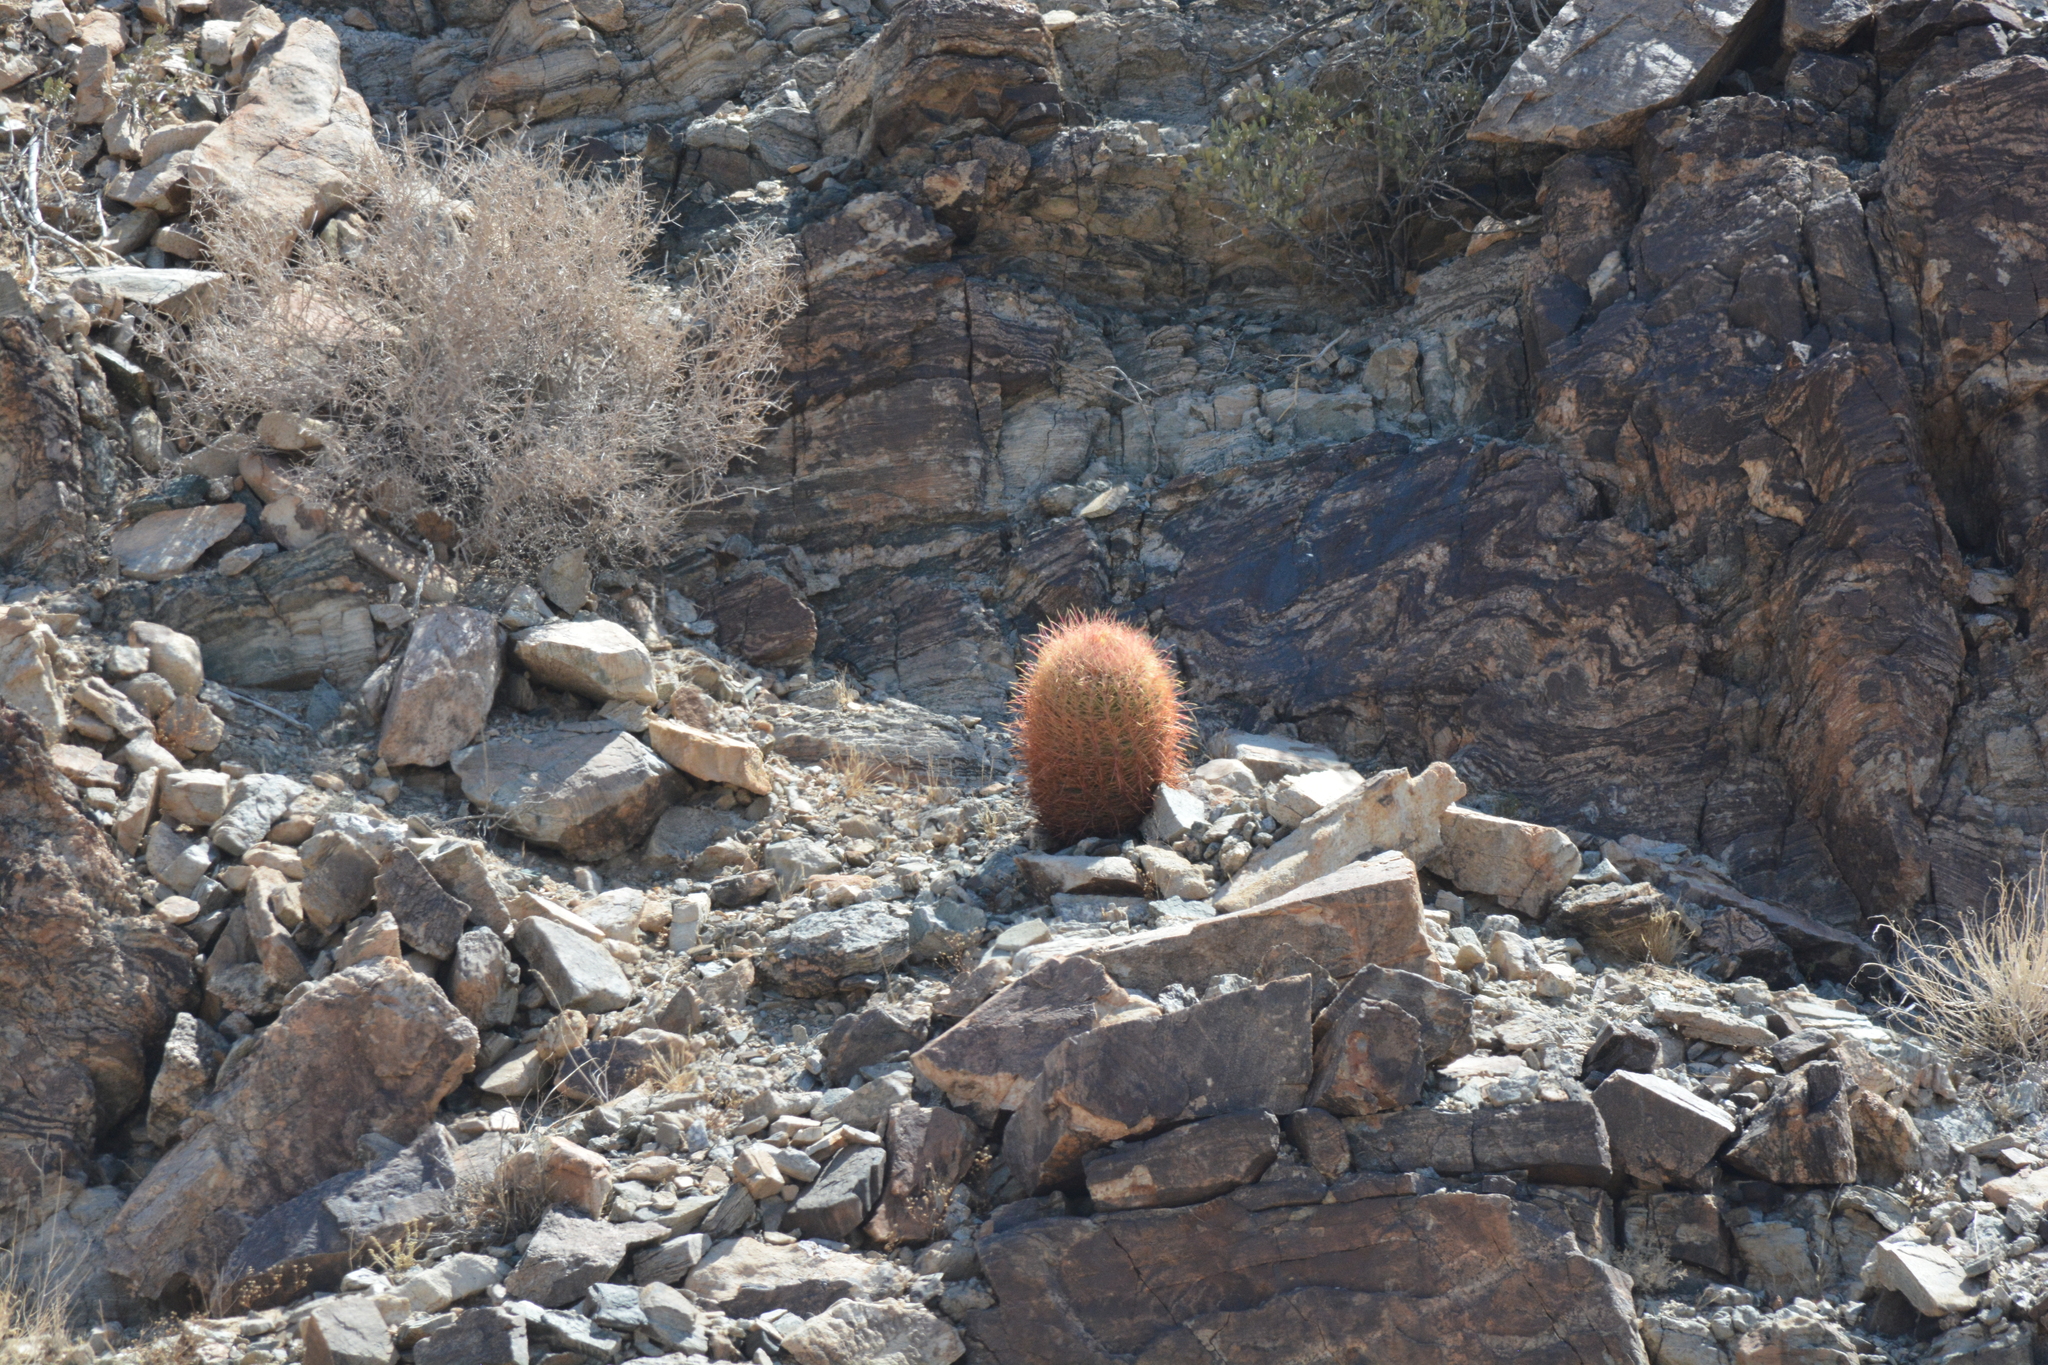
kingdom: Plantae
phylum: Tracheophyta
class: Magnoliopsida
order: Caryophyllales
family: Cactaceae
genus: Ferocactus
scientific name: Ferocactus cylindraceus
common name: California barrel cactus
